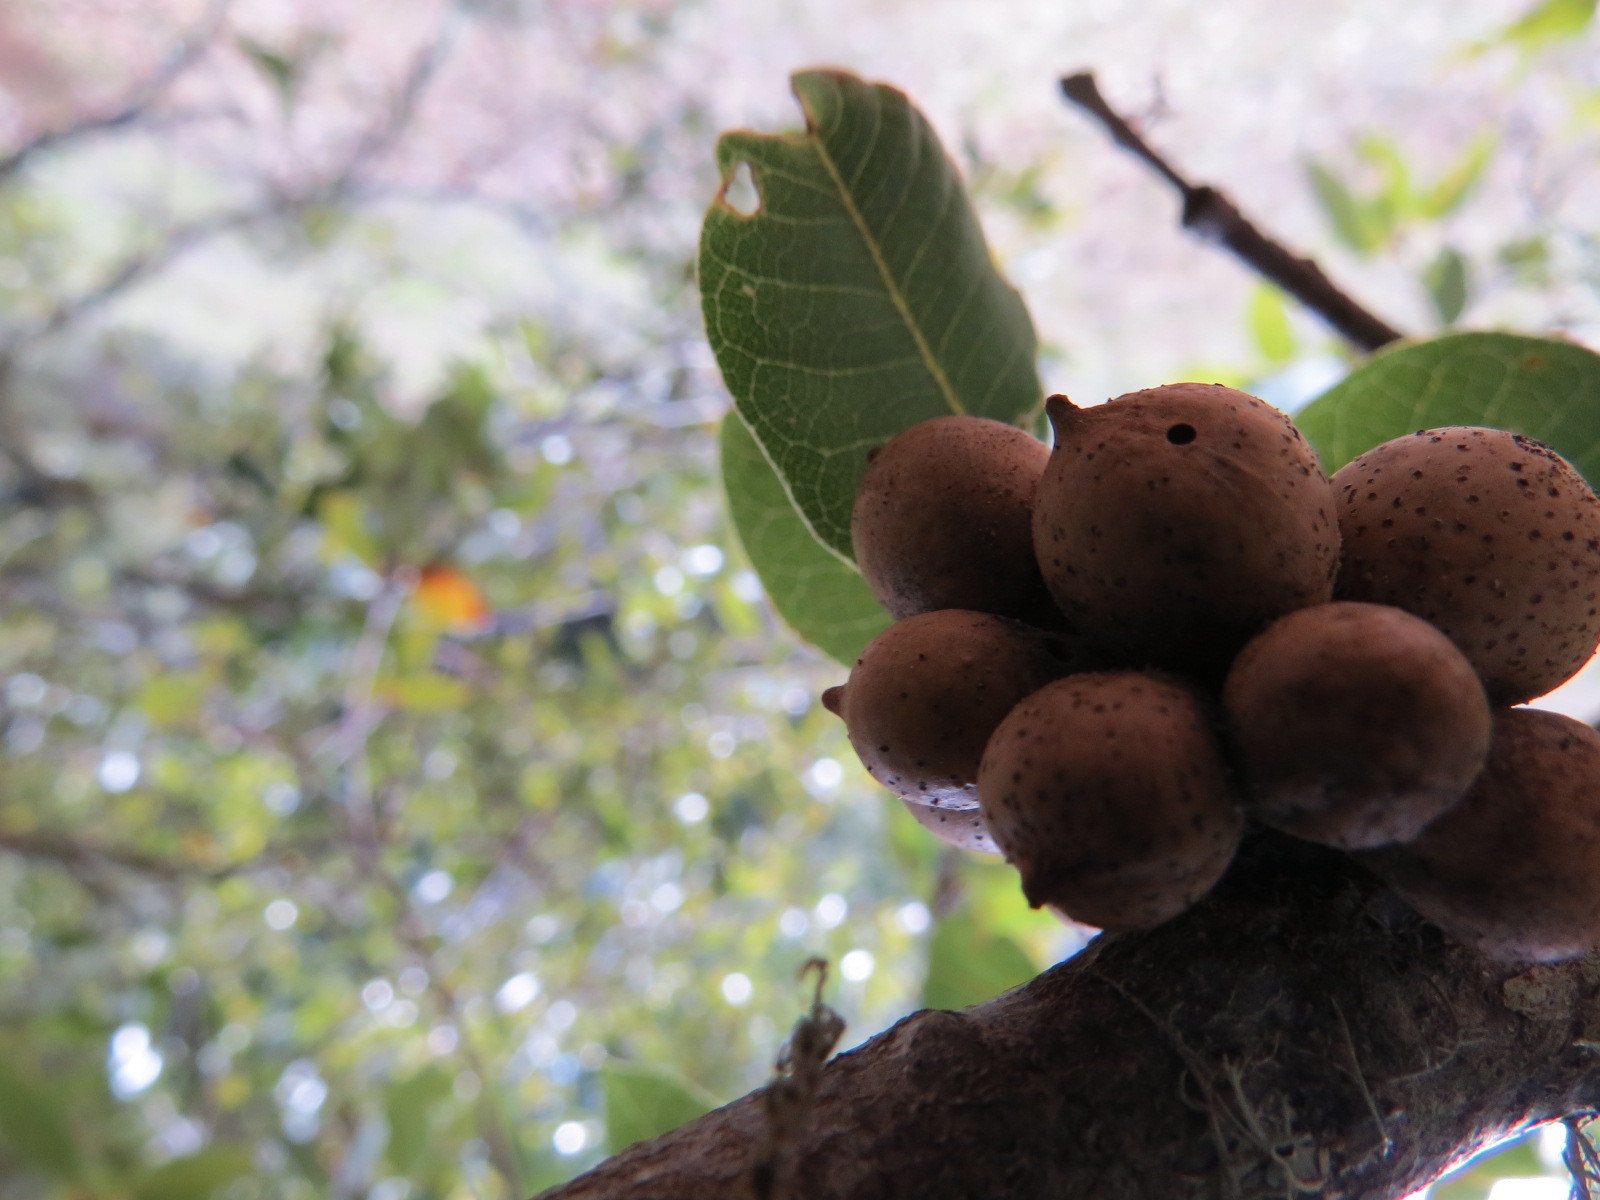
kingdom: Animalia
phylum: Arthropoda
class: Insecta
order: Hymenoptera
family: Cynipidae
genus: Heteroecus
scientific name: Heteroecus
